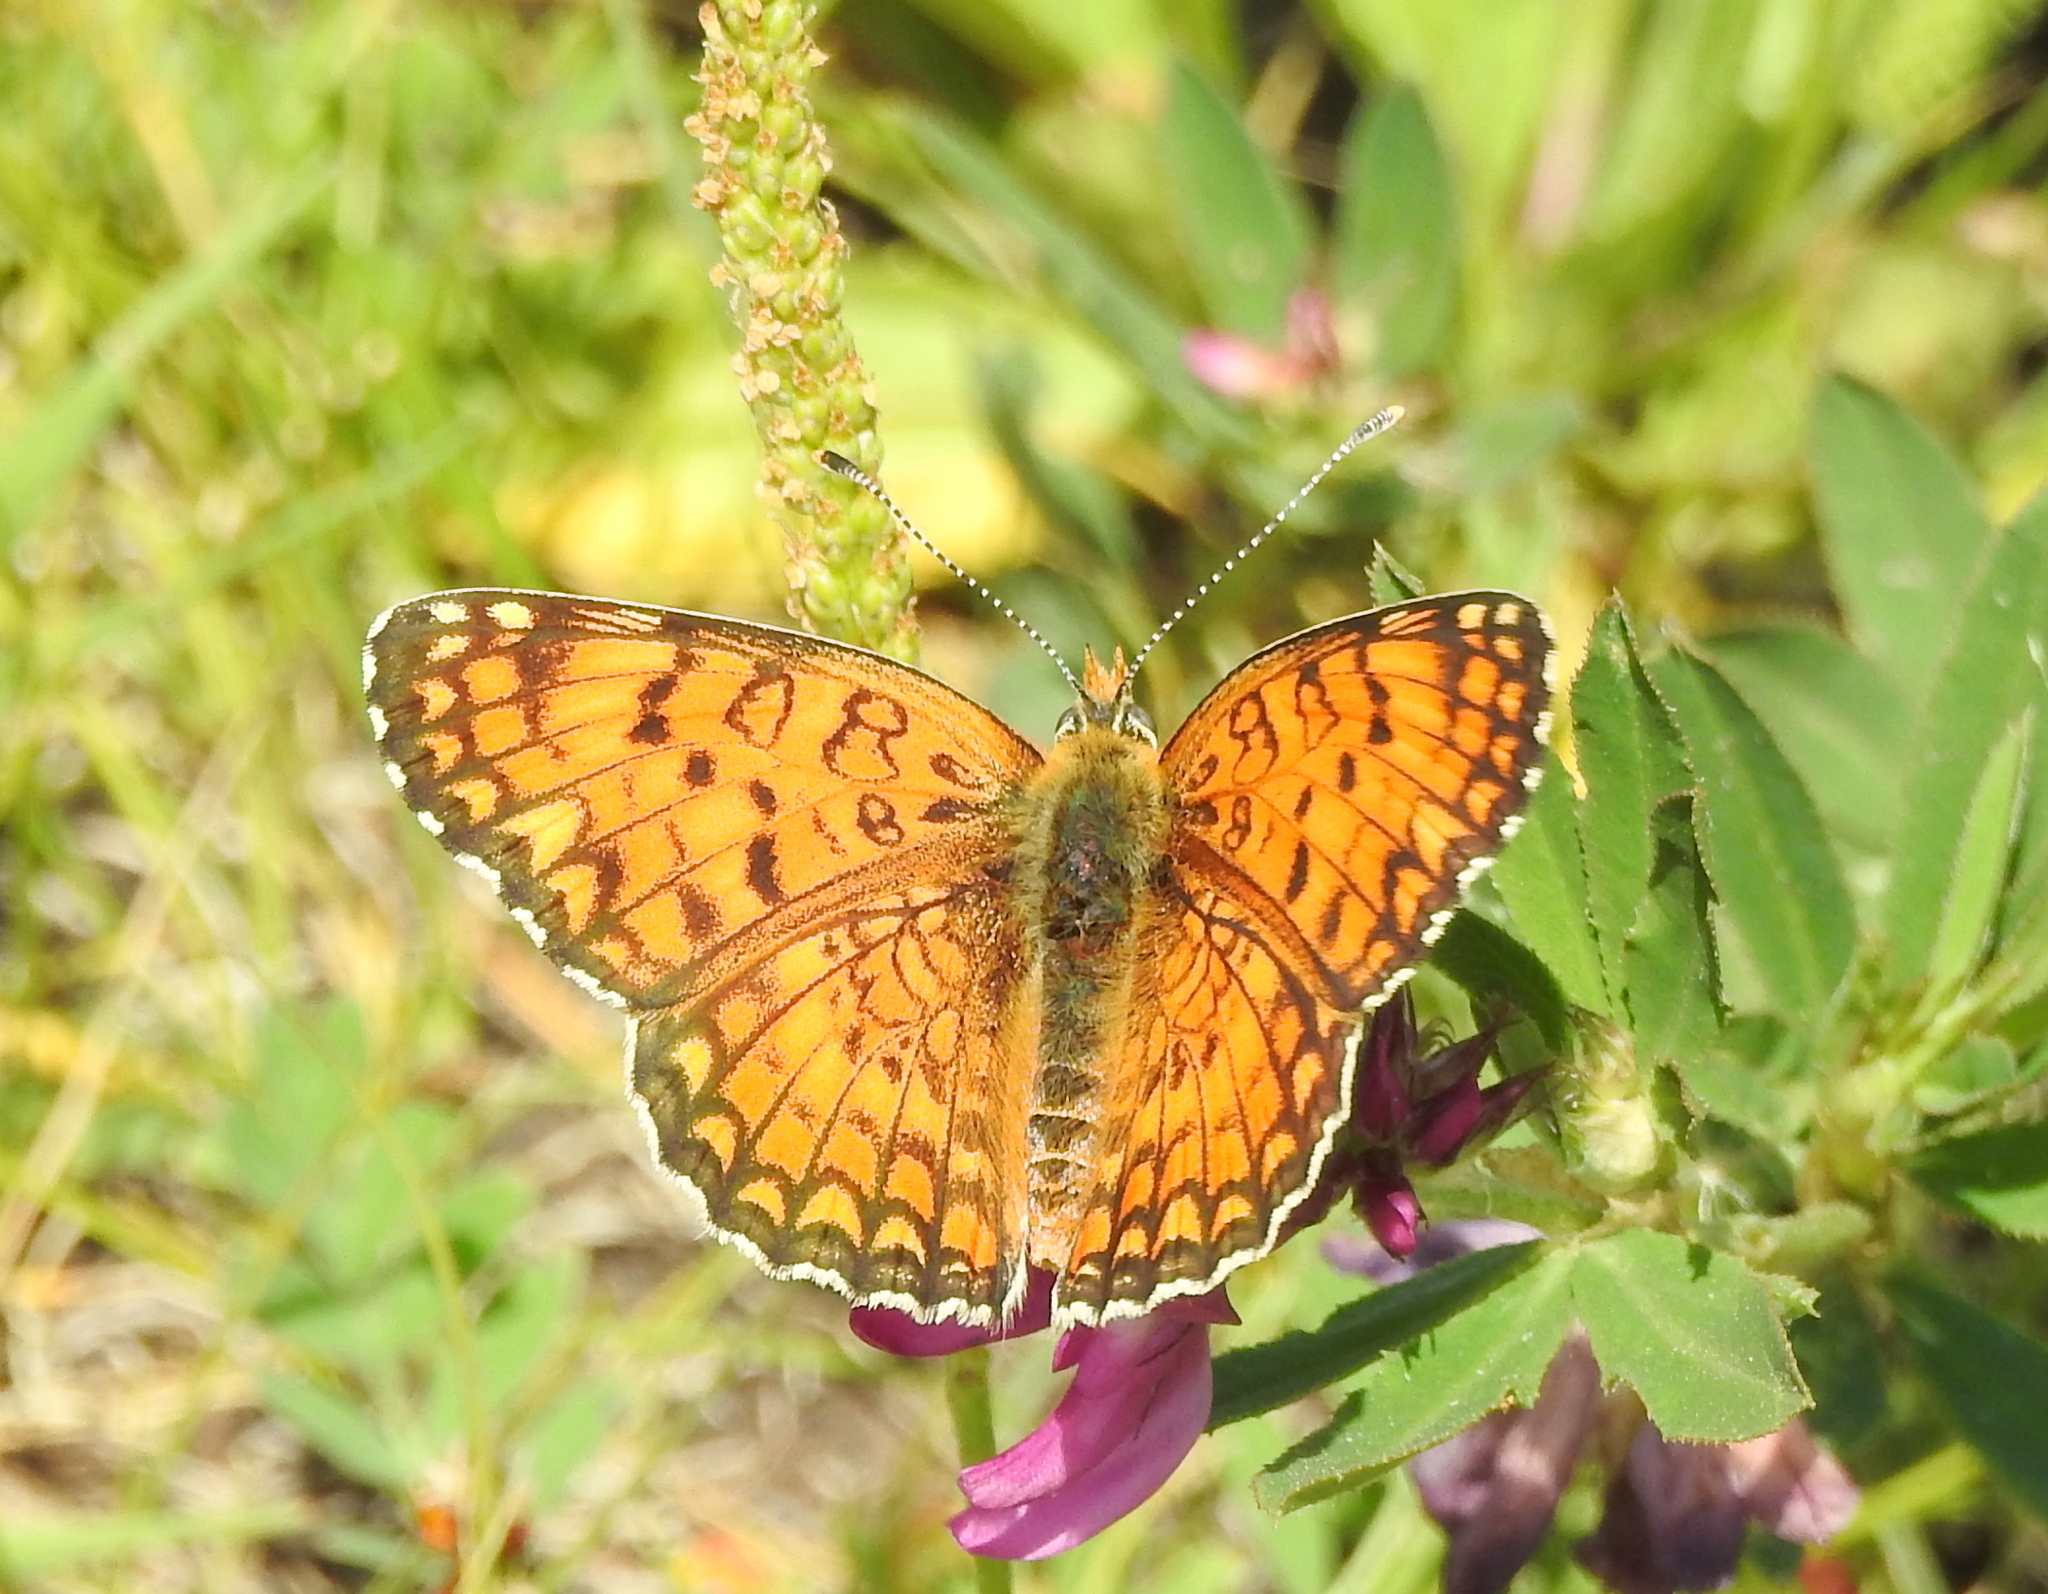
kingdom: Animalia
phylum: Arthropoda
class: Insecta
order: Lepidoptera
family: Nymphalidae
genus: Melitaea
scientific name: Melitaea phoebe
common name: Knapweed fritillary
